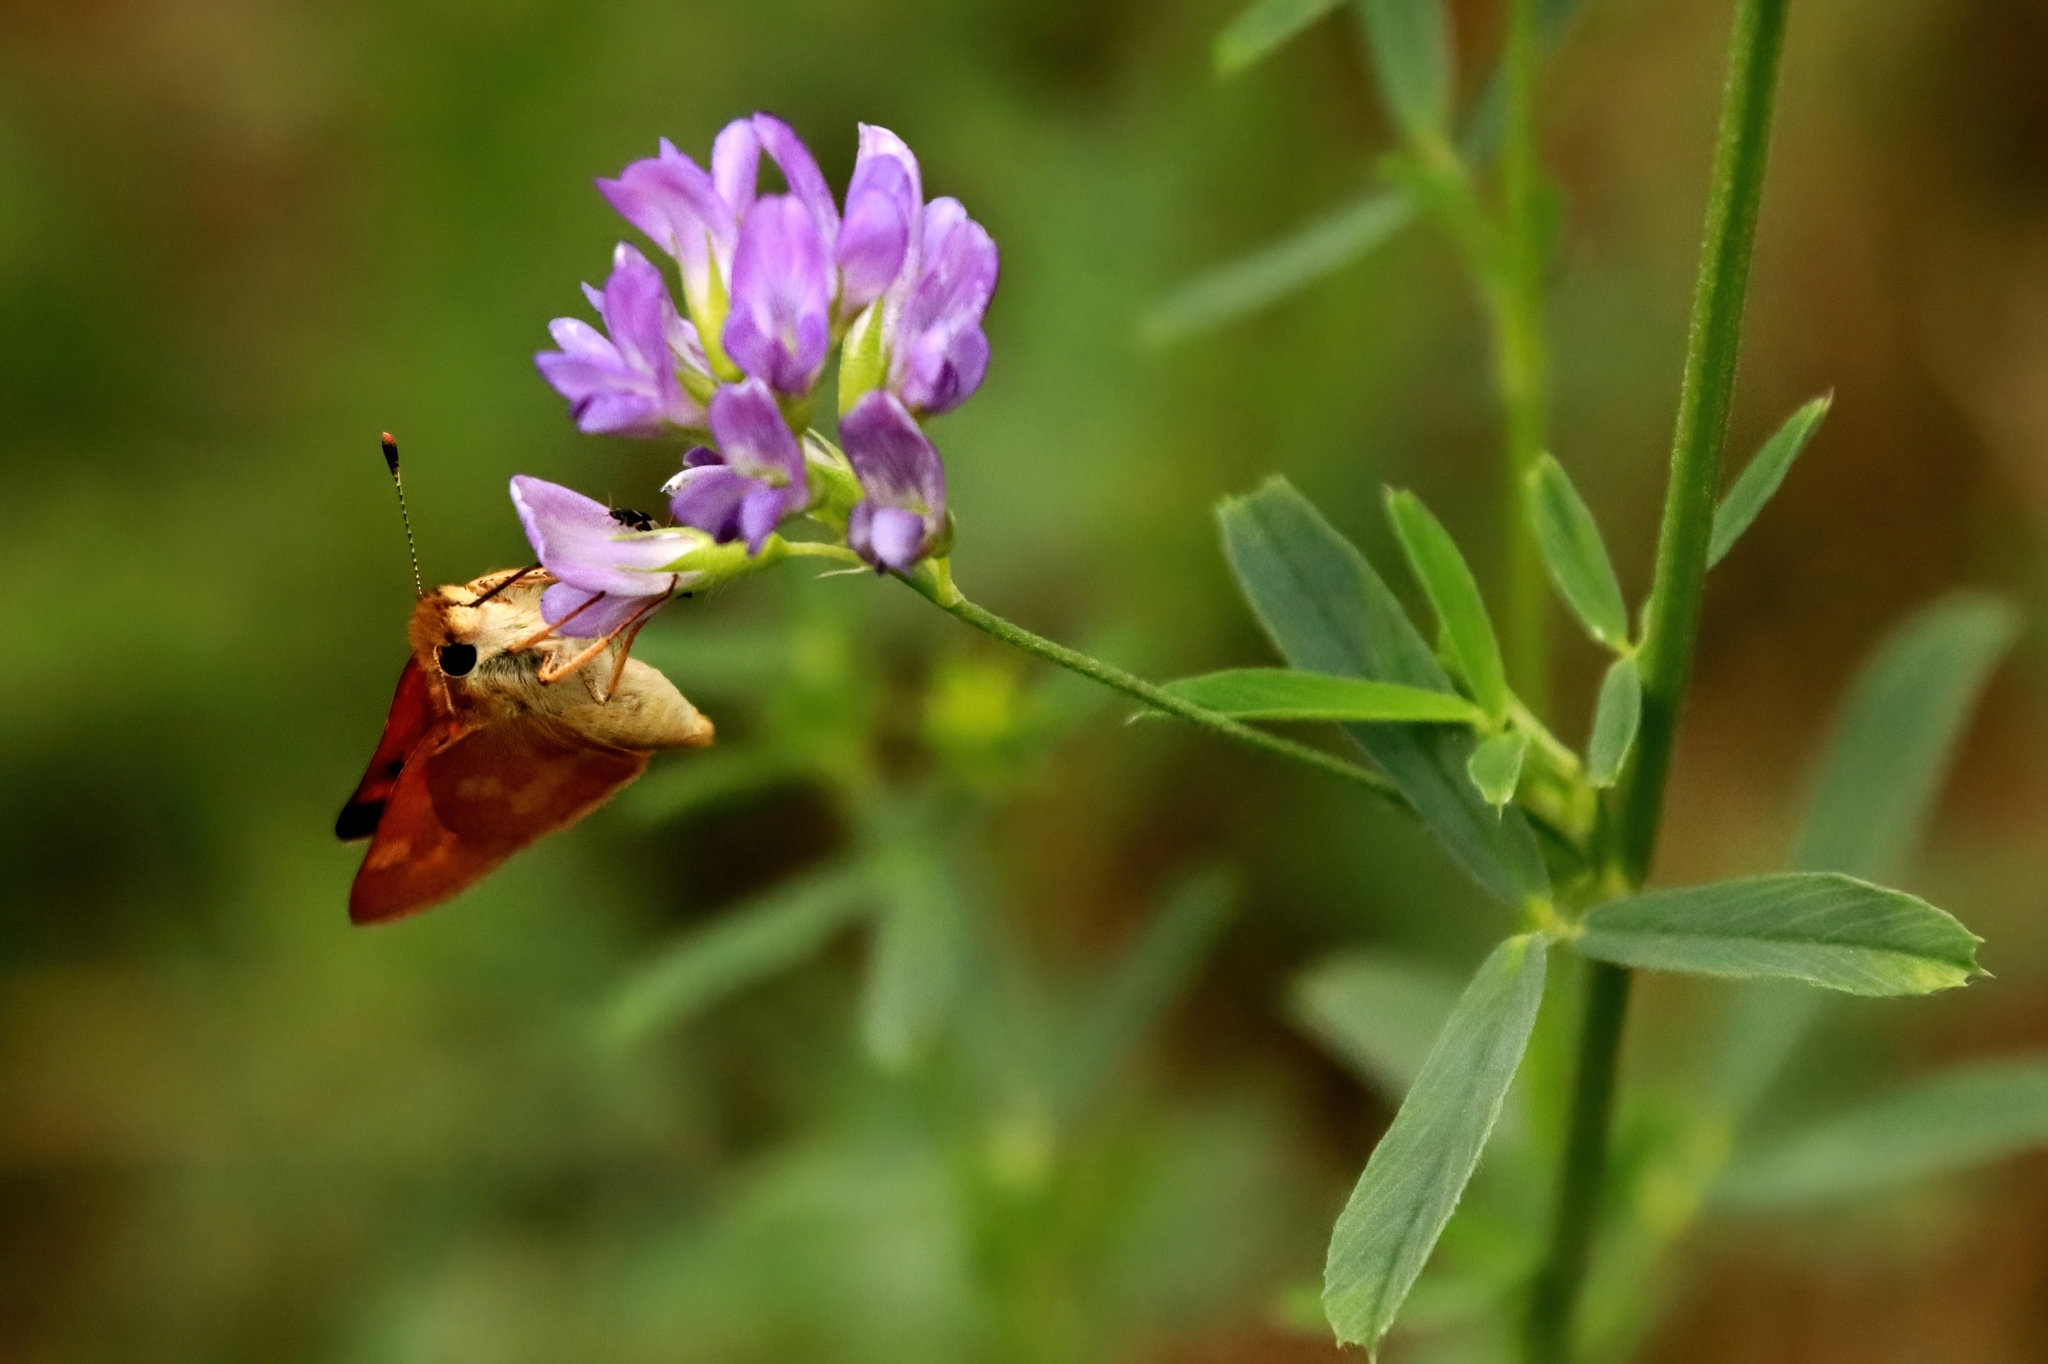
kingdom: Animalia
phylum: Arthropoda
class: Insecta
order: Lepidoptera
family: Hesperiidae
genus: Ochlodes
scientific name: Ochlodes sylvanoides
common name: Woodland skipper
